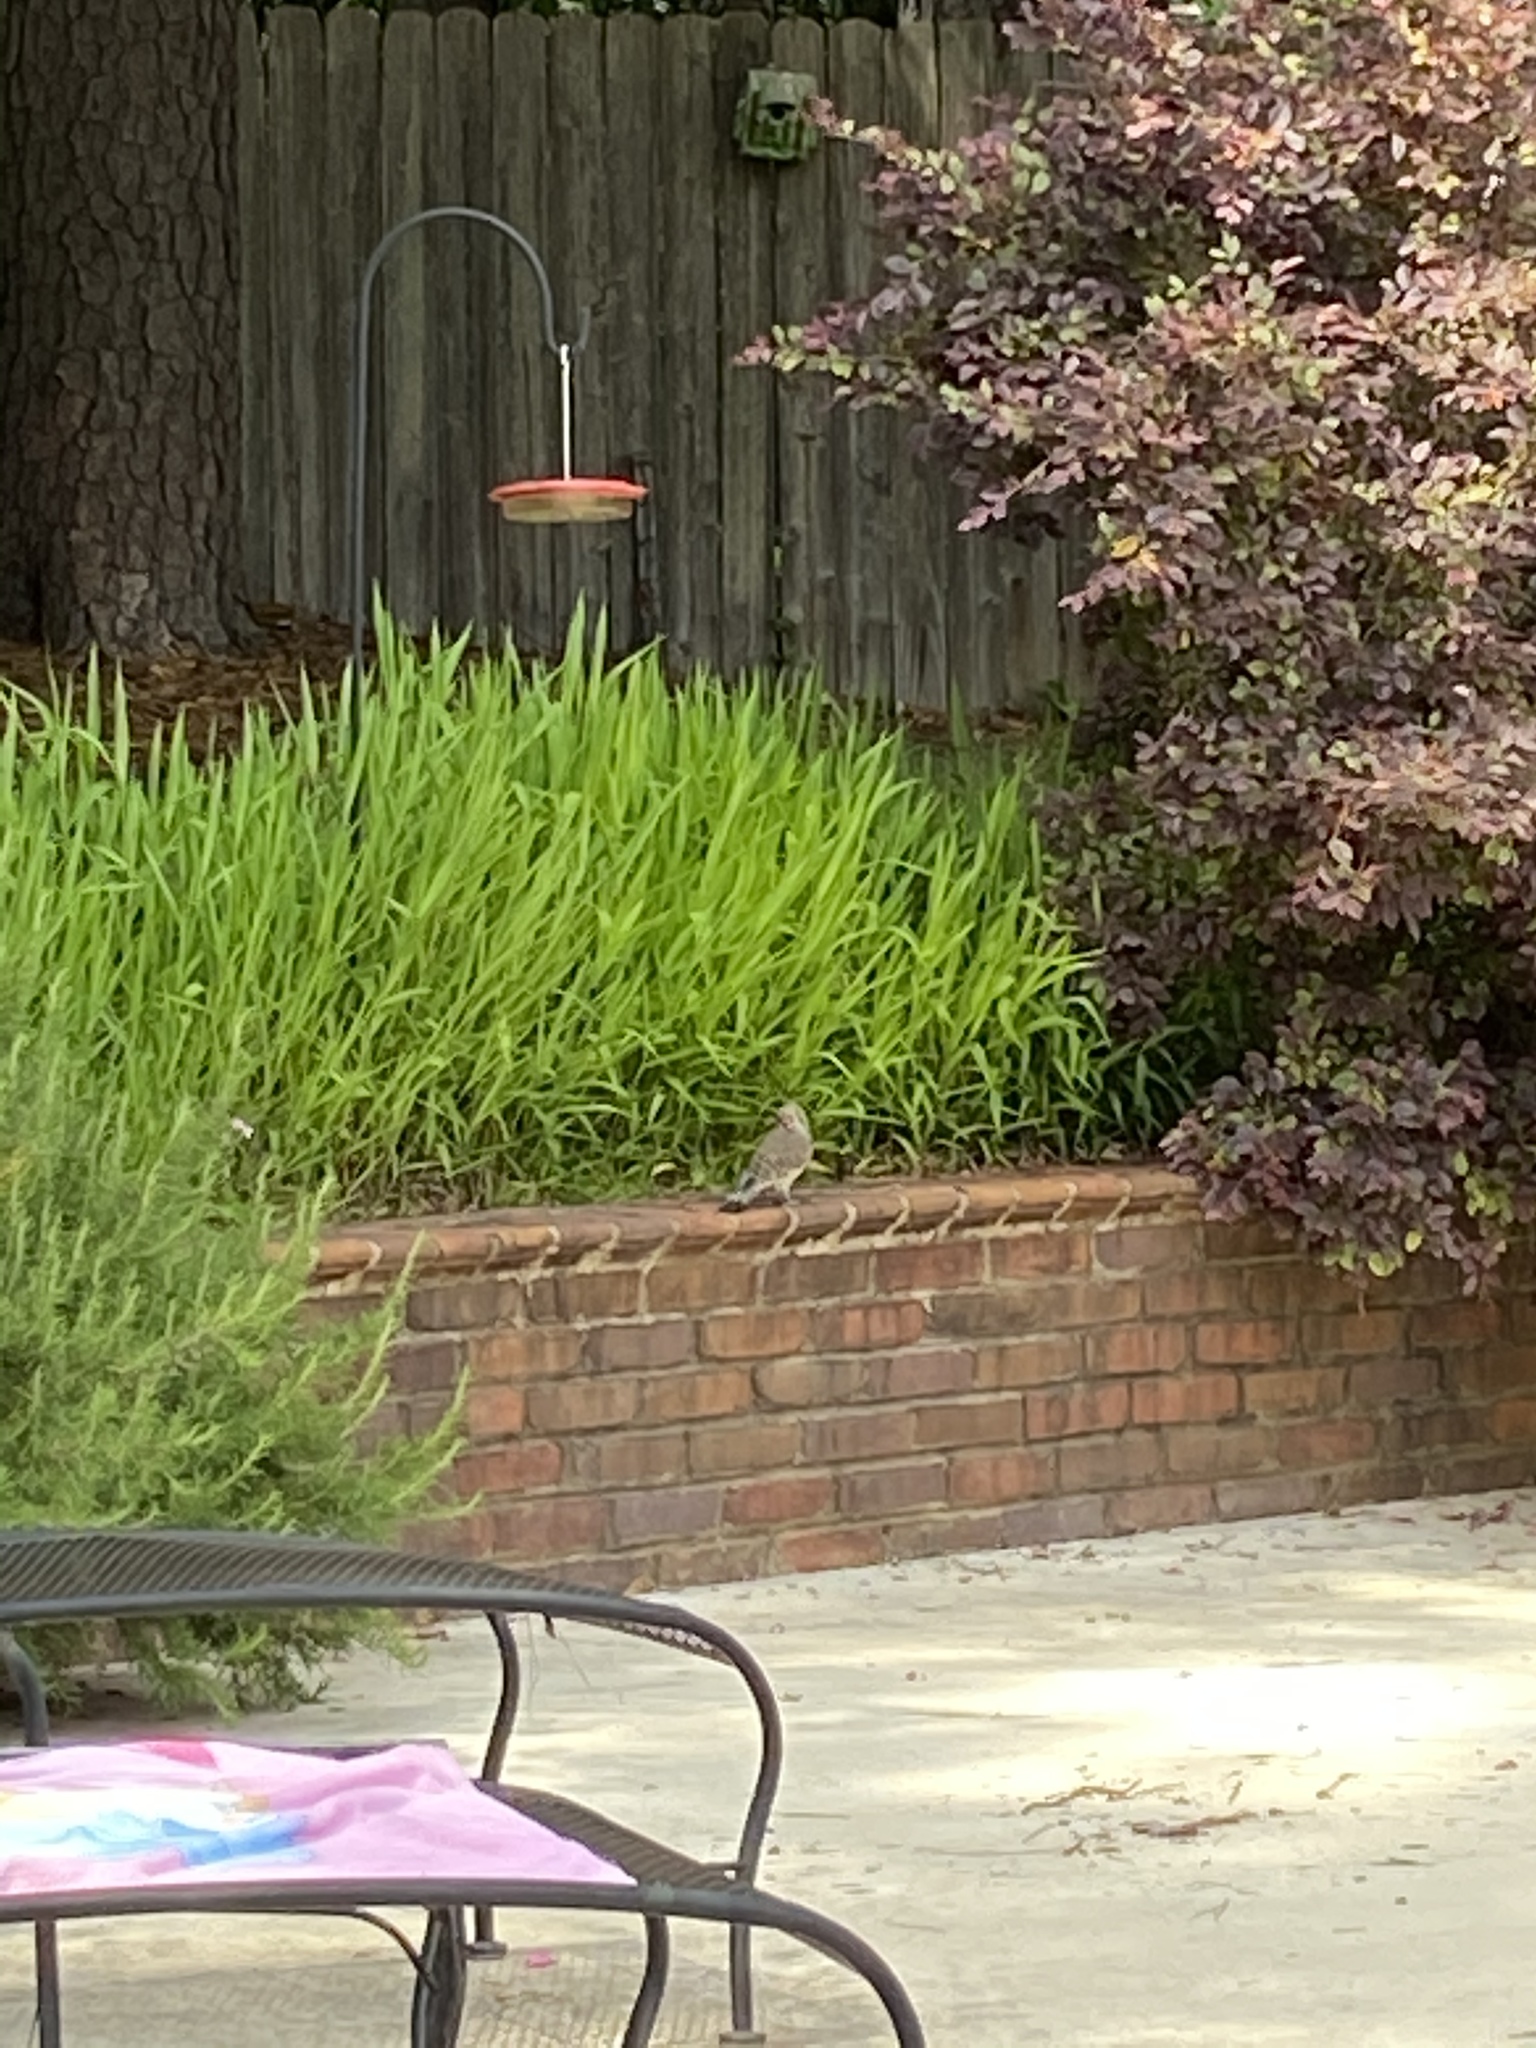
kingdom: Animalia
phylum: Chordata
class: Aves
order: Piciformes
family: Picidae
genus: Colaptes
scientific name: Colaptes auratus
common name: Northern flicker
